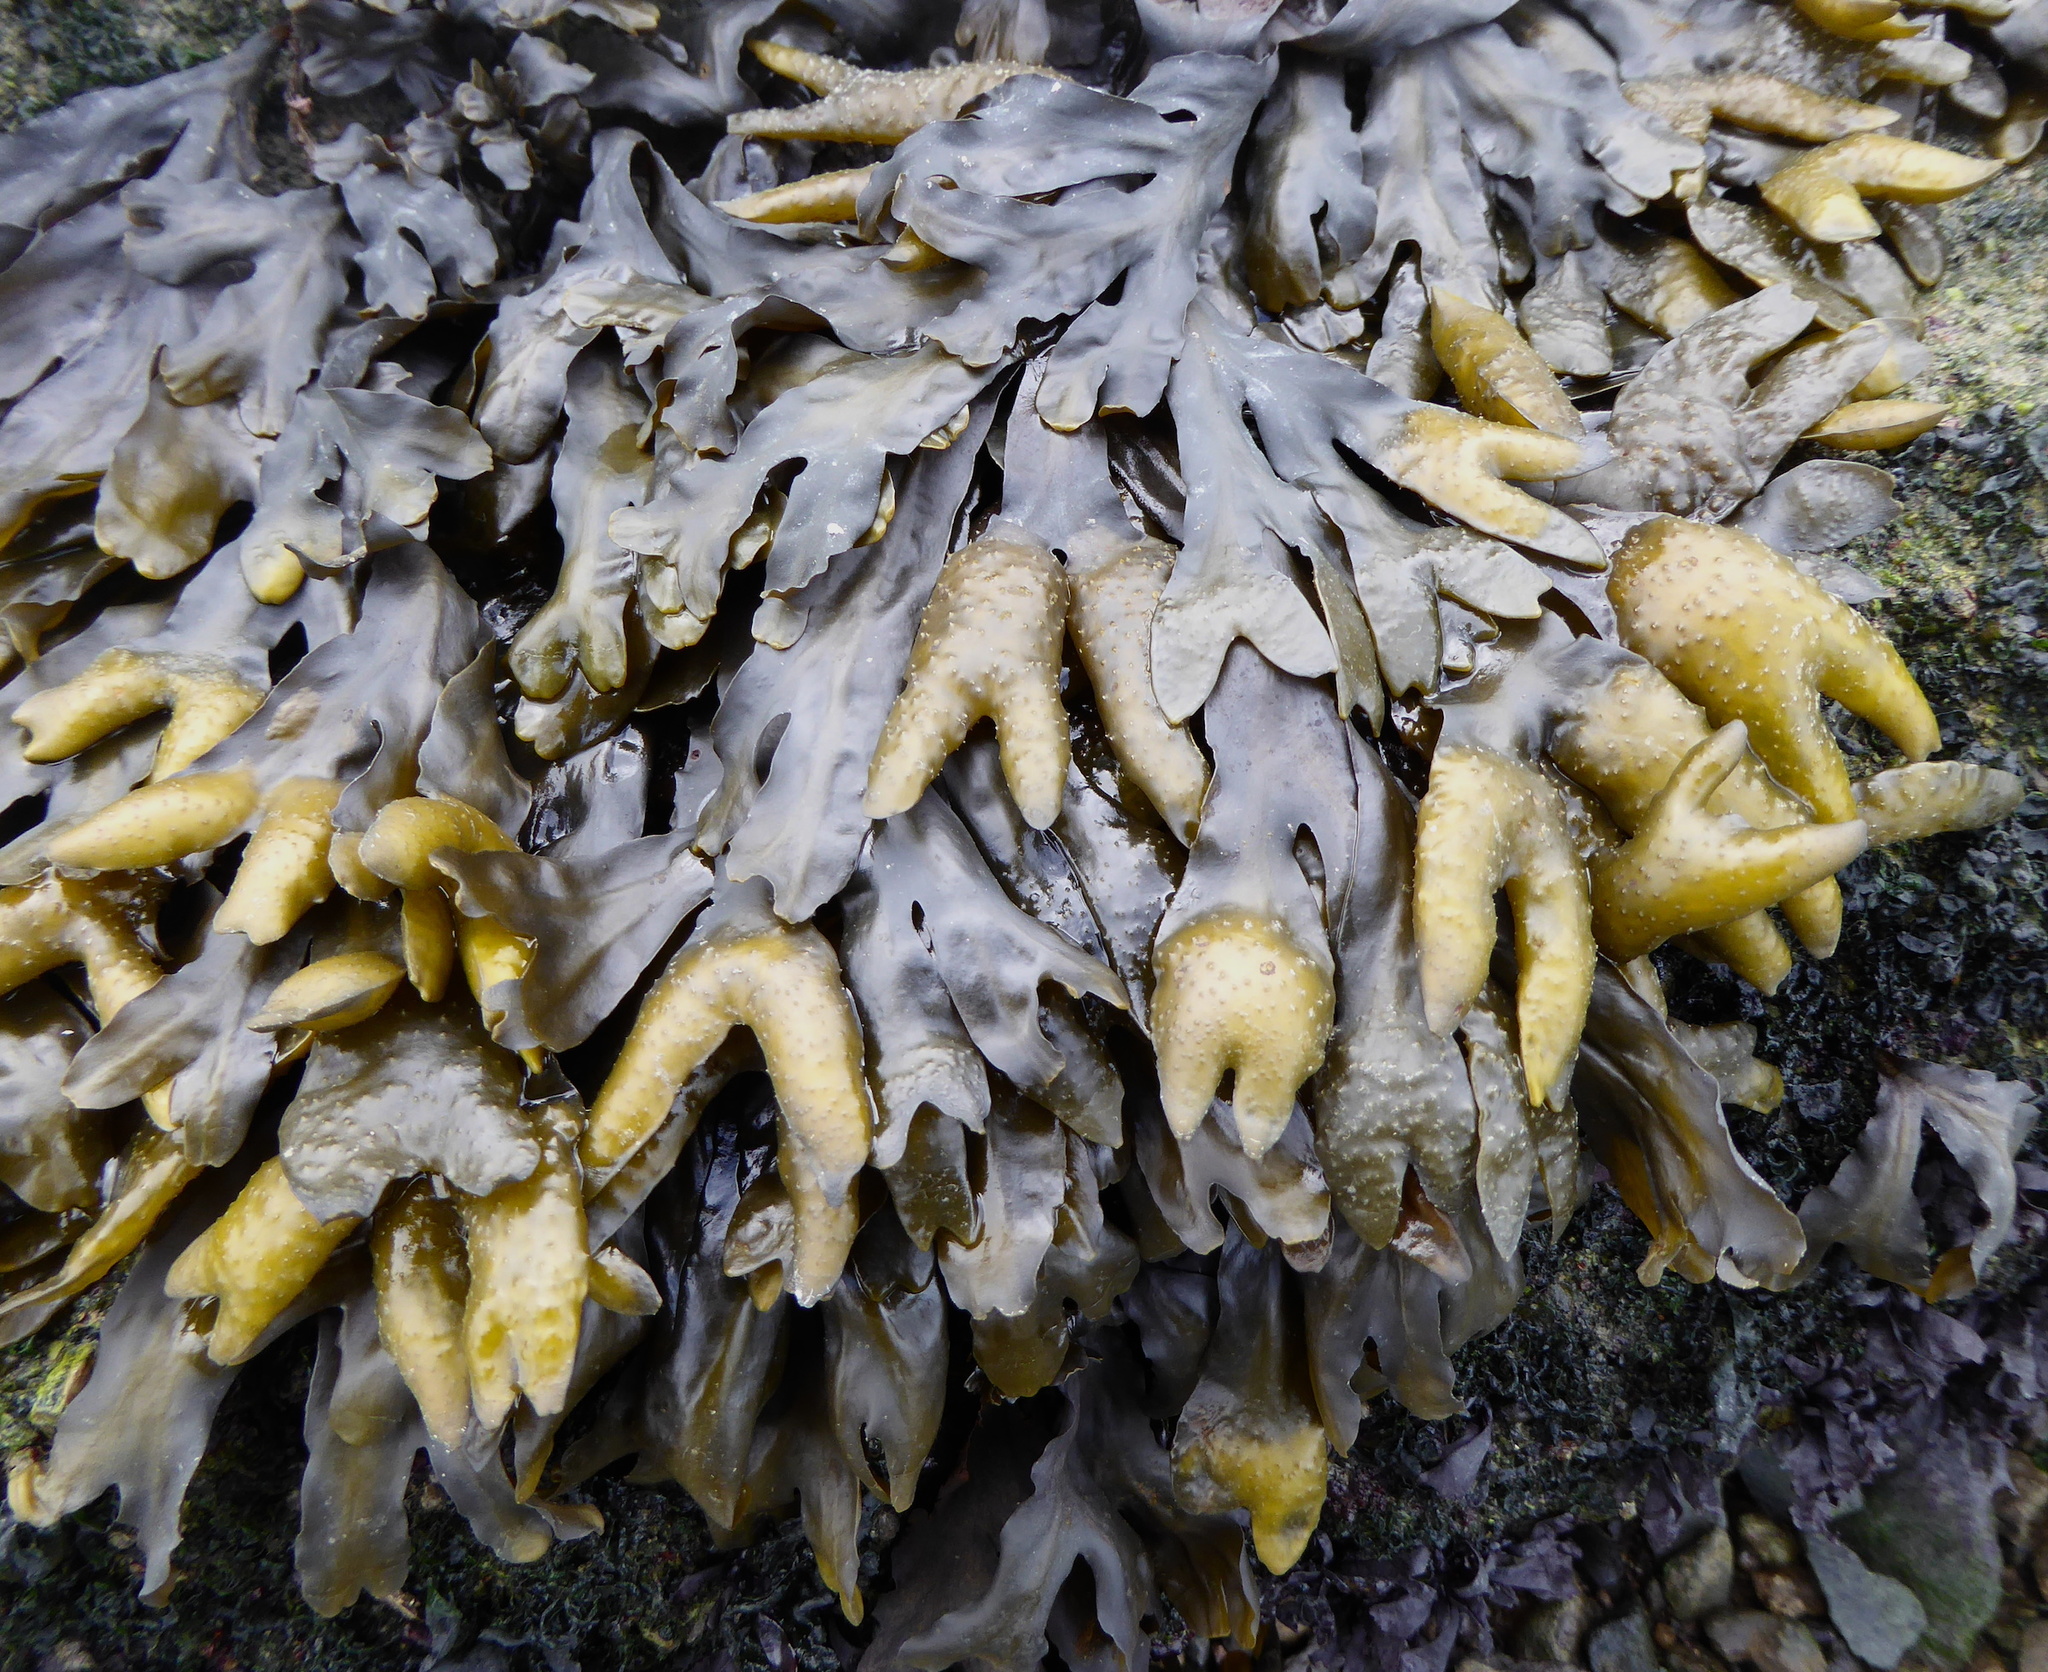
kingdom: Chromista
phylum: Ochrophyta
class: Phaeophyceae
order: Fucales
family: Fucaceae
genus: Fucus
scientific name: Fucus distichus
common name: Rockweed
